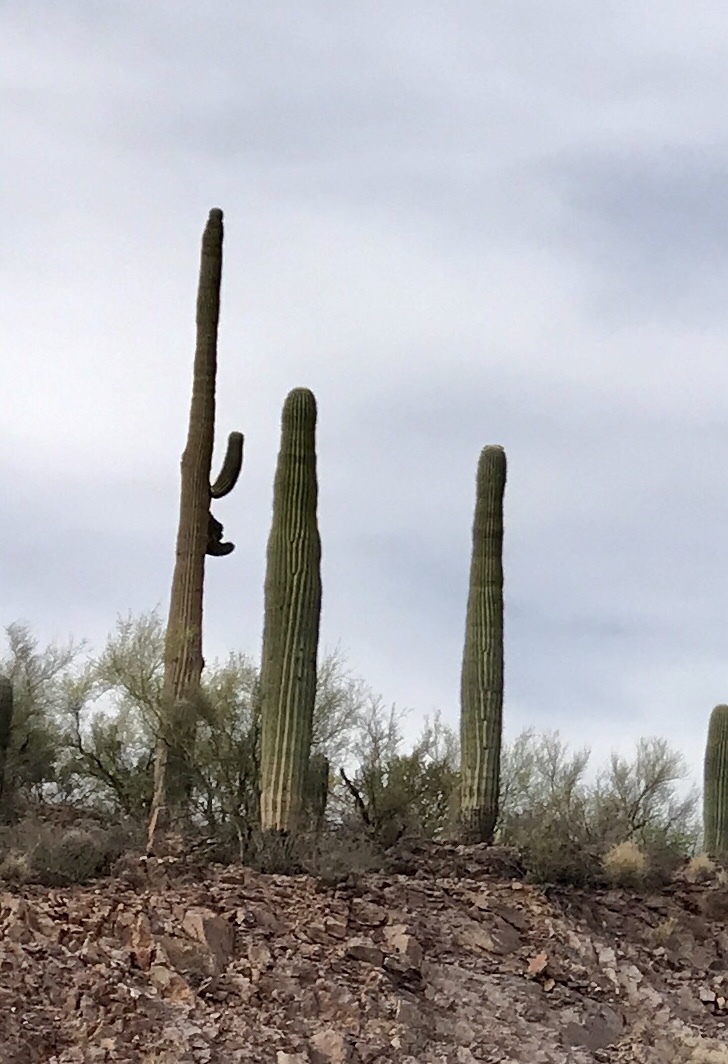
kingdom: Plantae
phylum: Tracheophyta
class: Magnoliopsida
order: Caryophyllales
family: Cactaceae
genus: Carnegiea
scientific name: Carnegiea gigantea
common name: Saguaro
